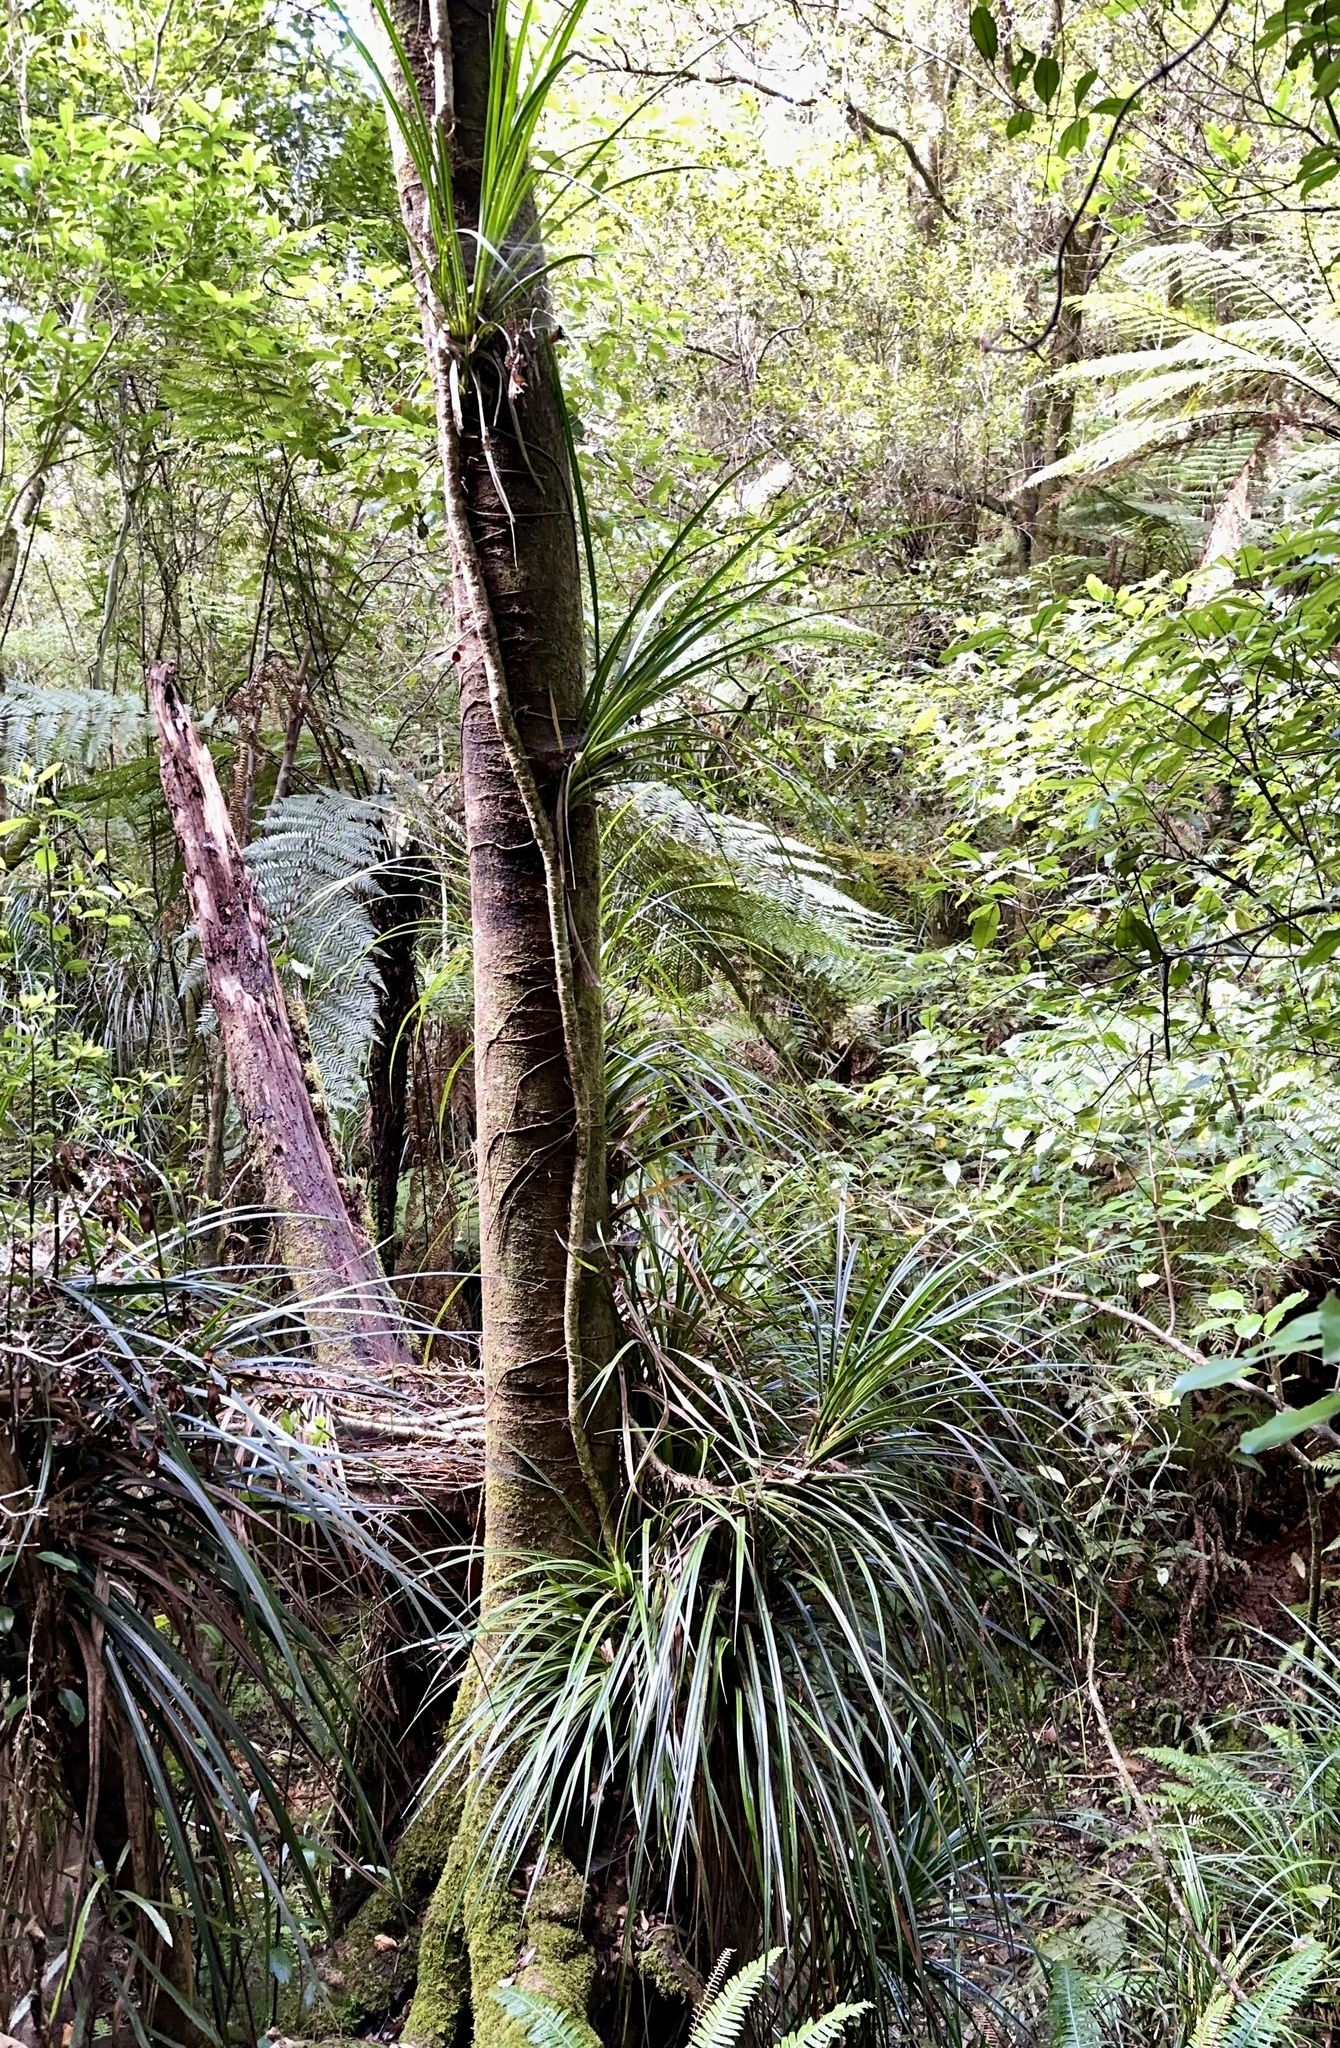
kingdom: Plantae
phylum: Tracheophyta
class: Liliopsida
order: Pandanales
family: Pandanaceae
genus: Freycinetia
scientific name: Freycinetia banksii
